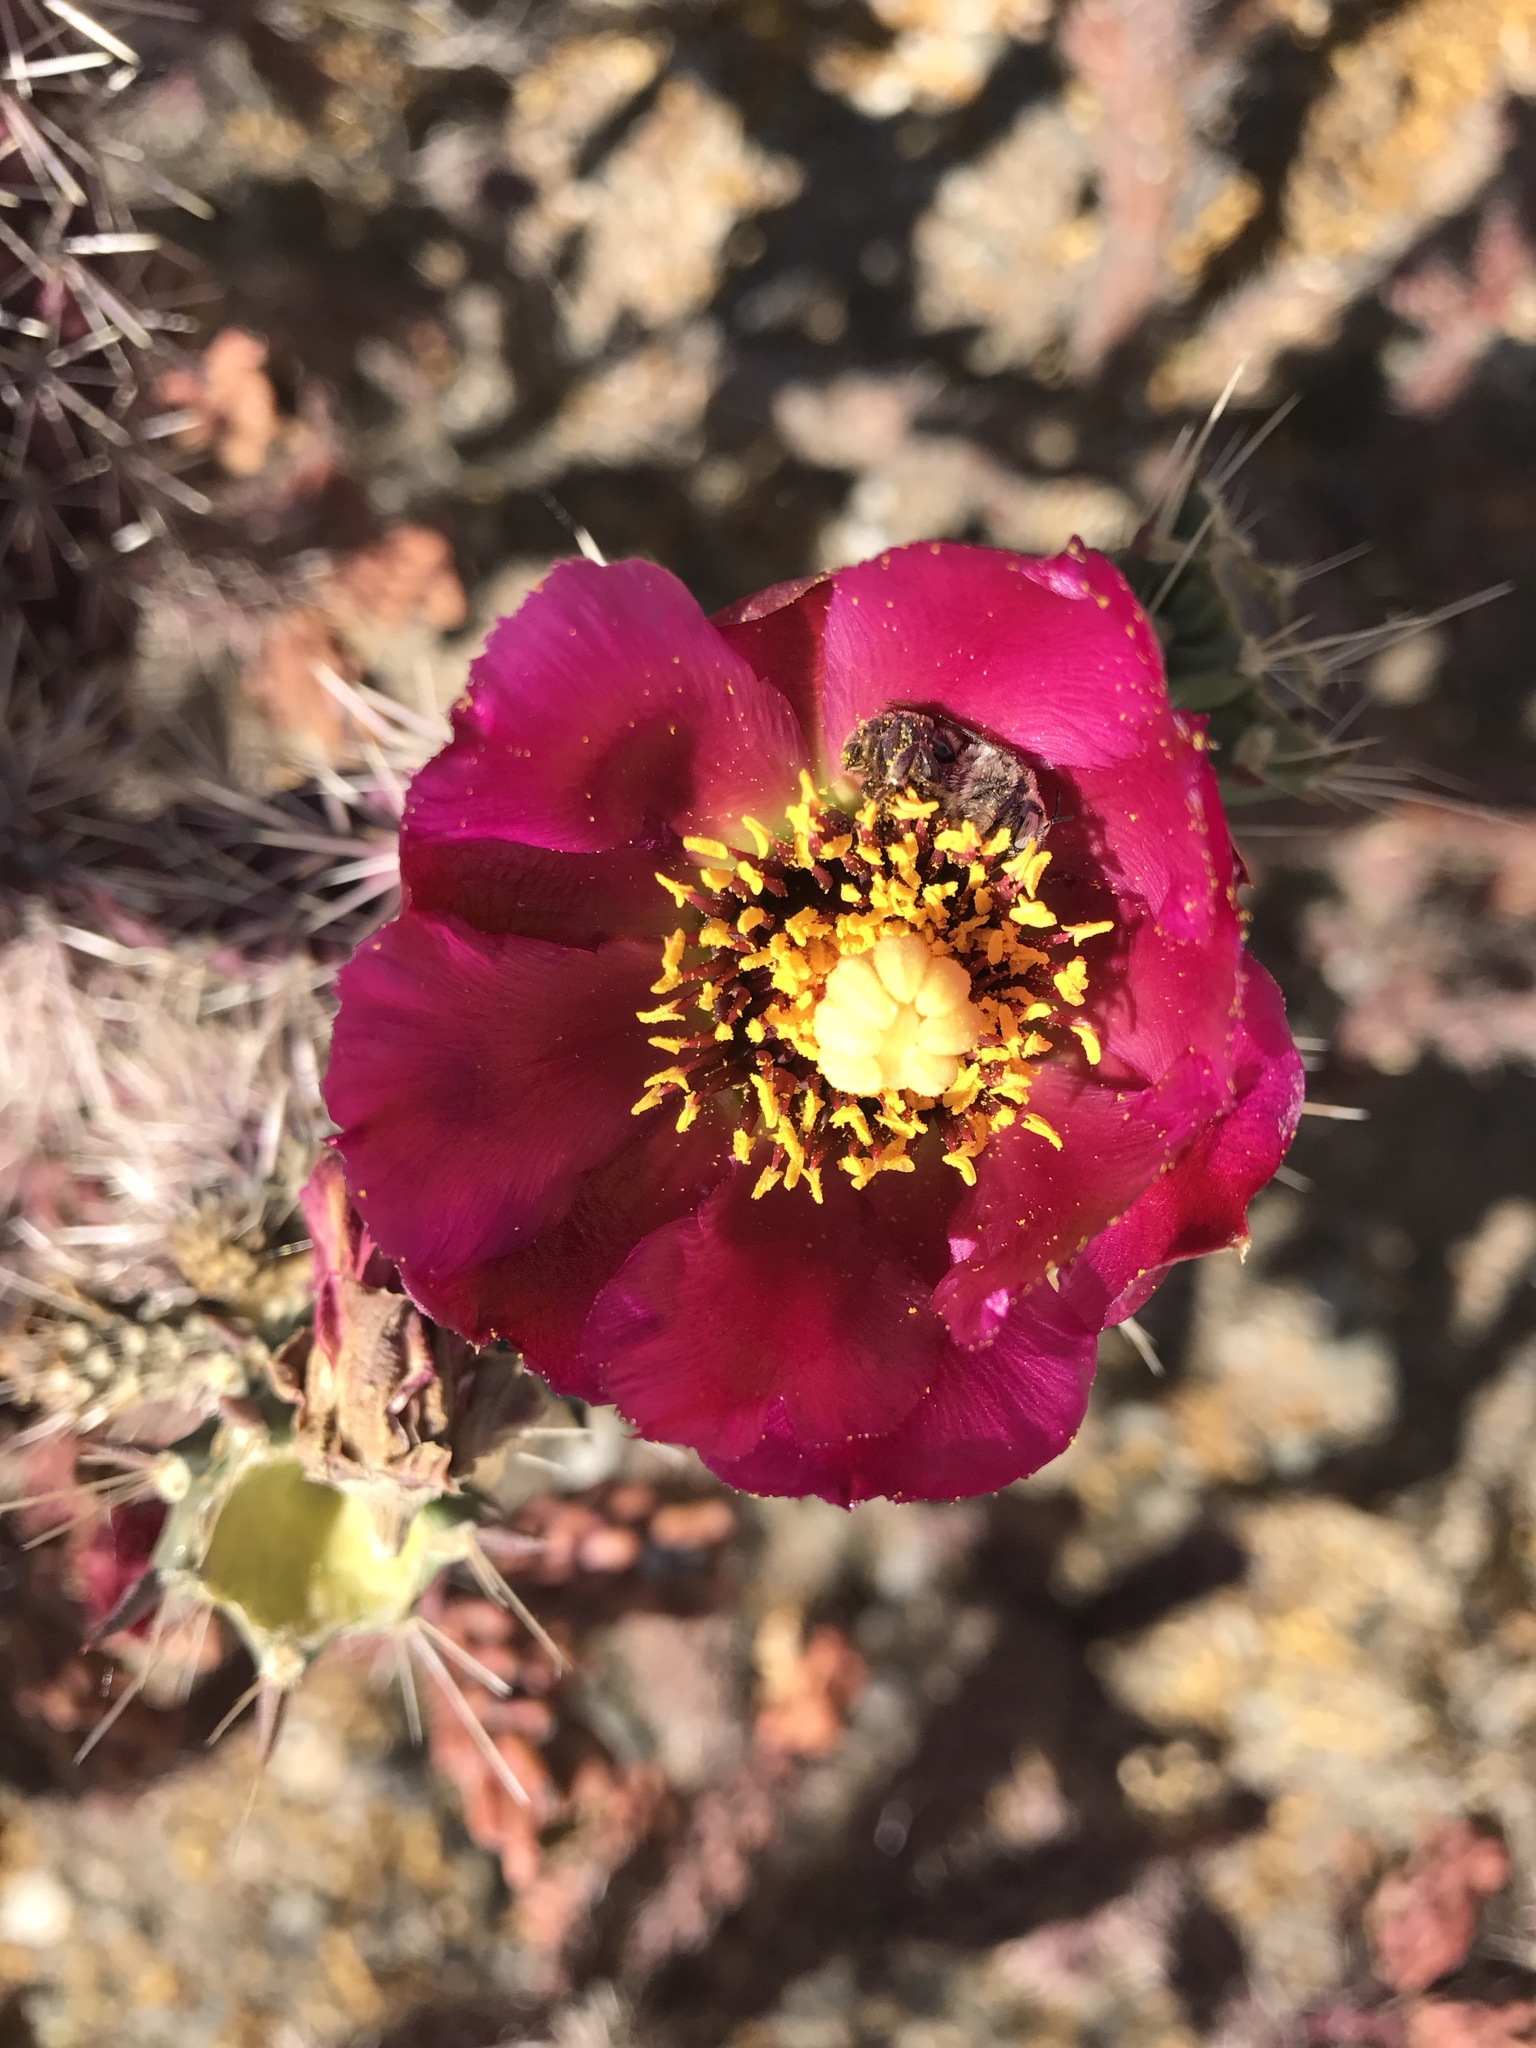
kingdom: Plantae
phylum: Tracheophyta
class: Magnoliopsida
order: Caryophyllales
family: Cactaceae
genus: Cylindropuntia
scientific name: Cylindropuntia imbricata
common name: Candelabrum cactus
